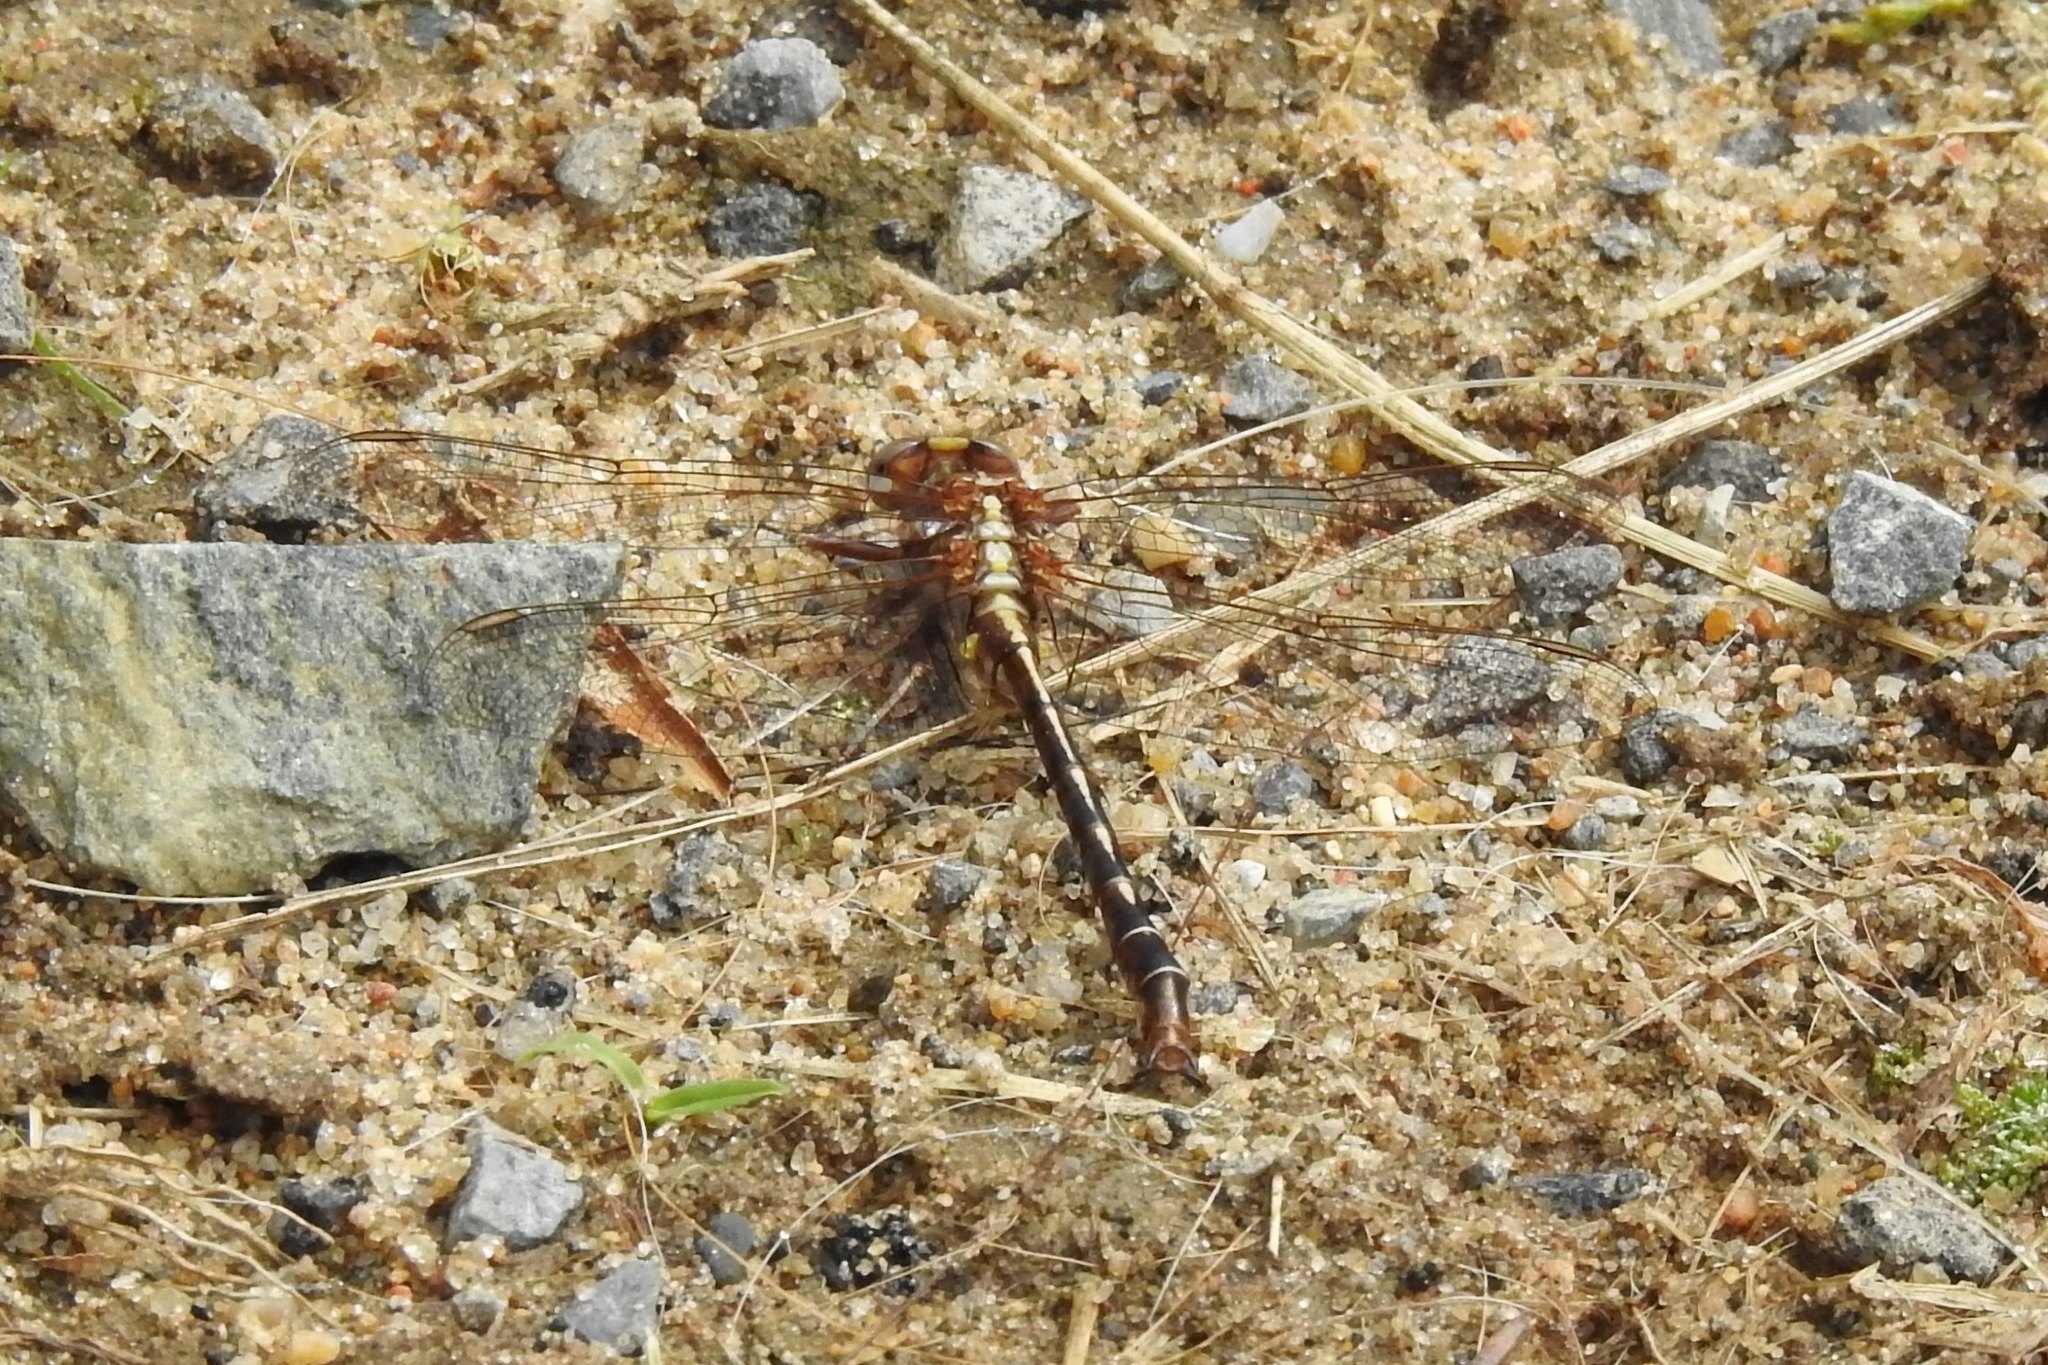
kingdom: Animalia
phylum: Arthropoda
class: Insecta
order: Odonata
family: Gomphidae
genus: Phanogomphus
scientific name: Phanogomphus lividus
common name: Ashy clubtail
